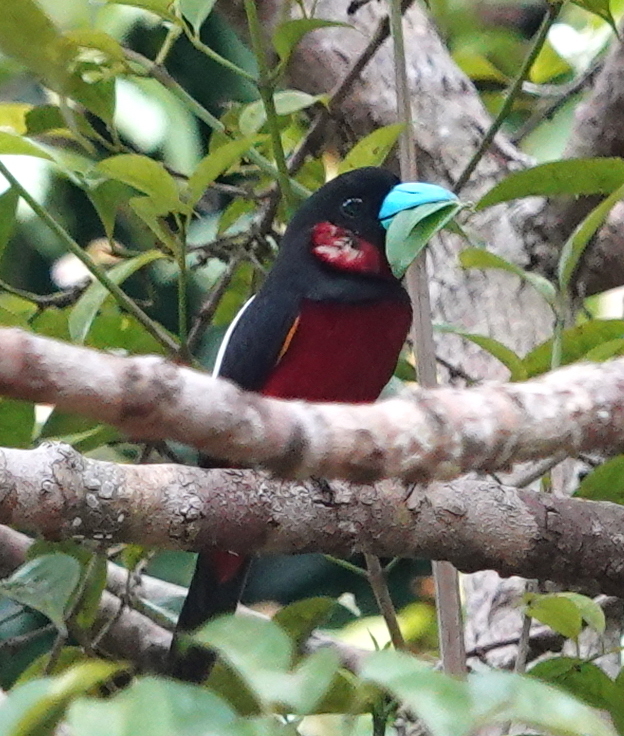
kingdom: Animalia
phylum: Chordata
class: Aves
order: Passeriformes
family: Eurylaimidae
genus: Cymbirhynchus
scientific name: Cymbirhynchus macrorhynchos
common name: Black-and-red broadbill
